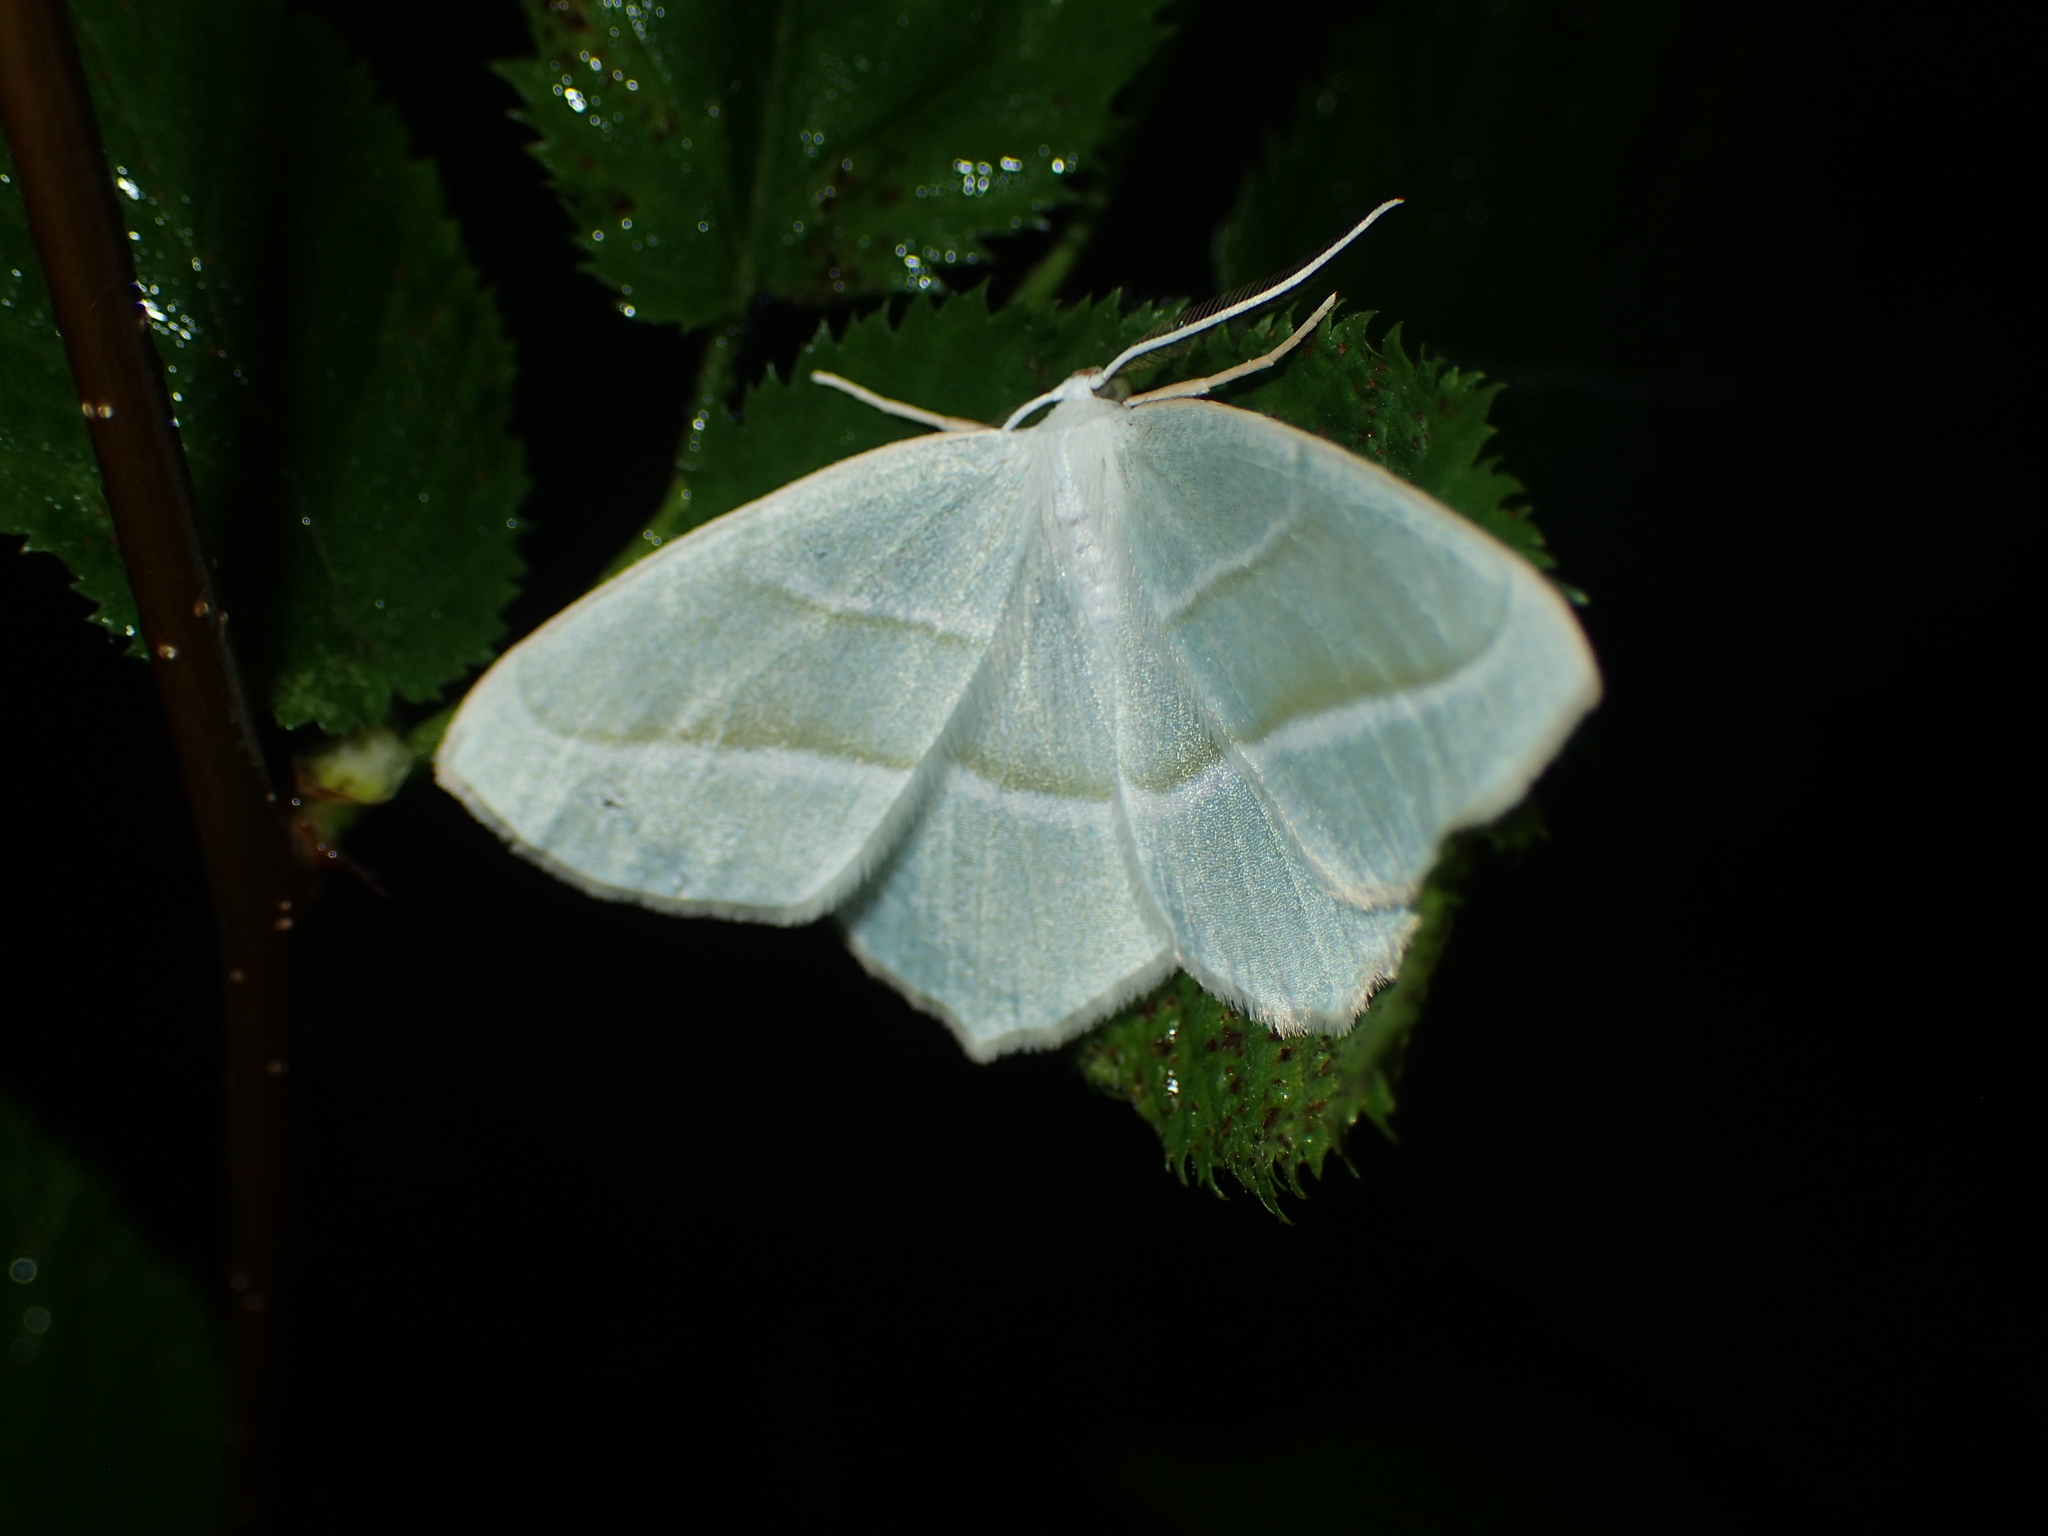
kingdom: Animalia
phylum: Arthropoda
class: Insecta
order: Lepidoptera
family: Geometridae
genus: Campaea
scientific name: Campaea perlata
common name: Fringed looper
